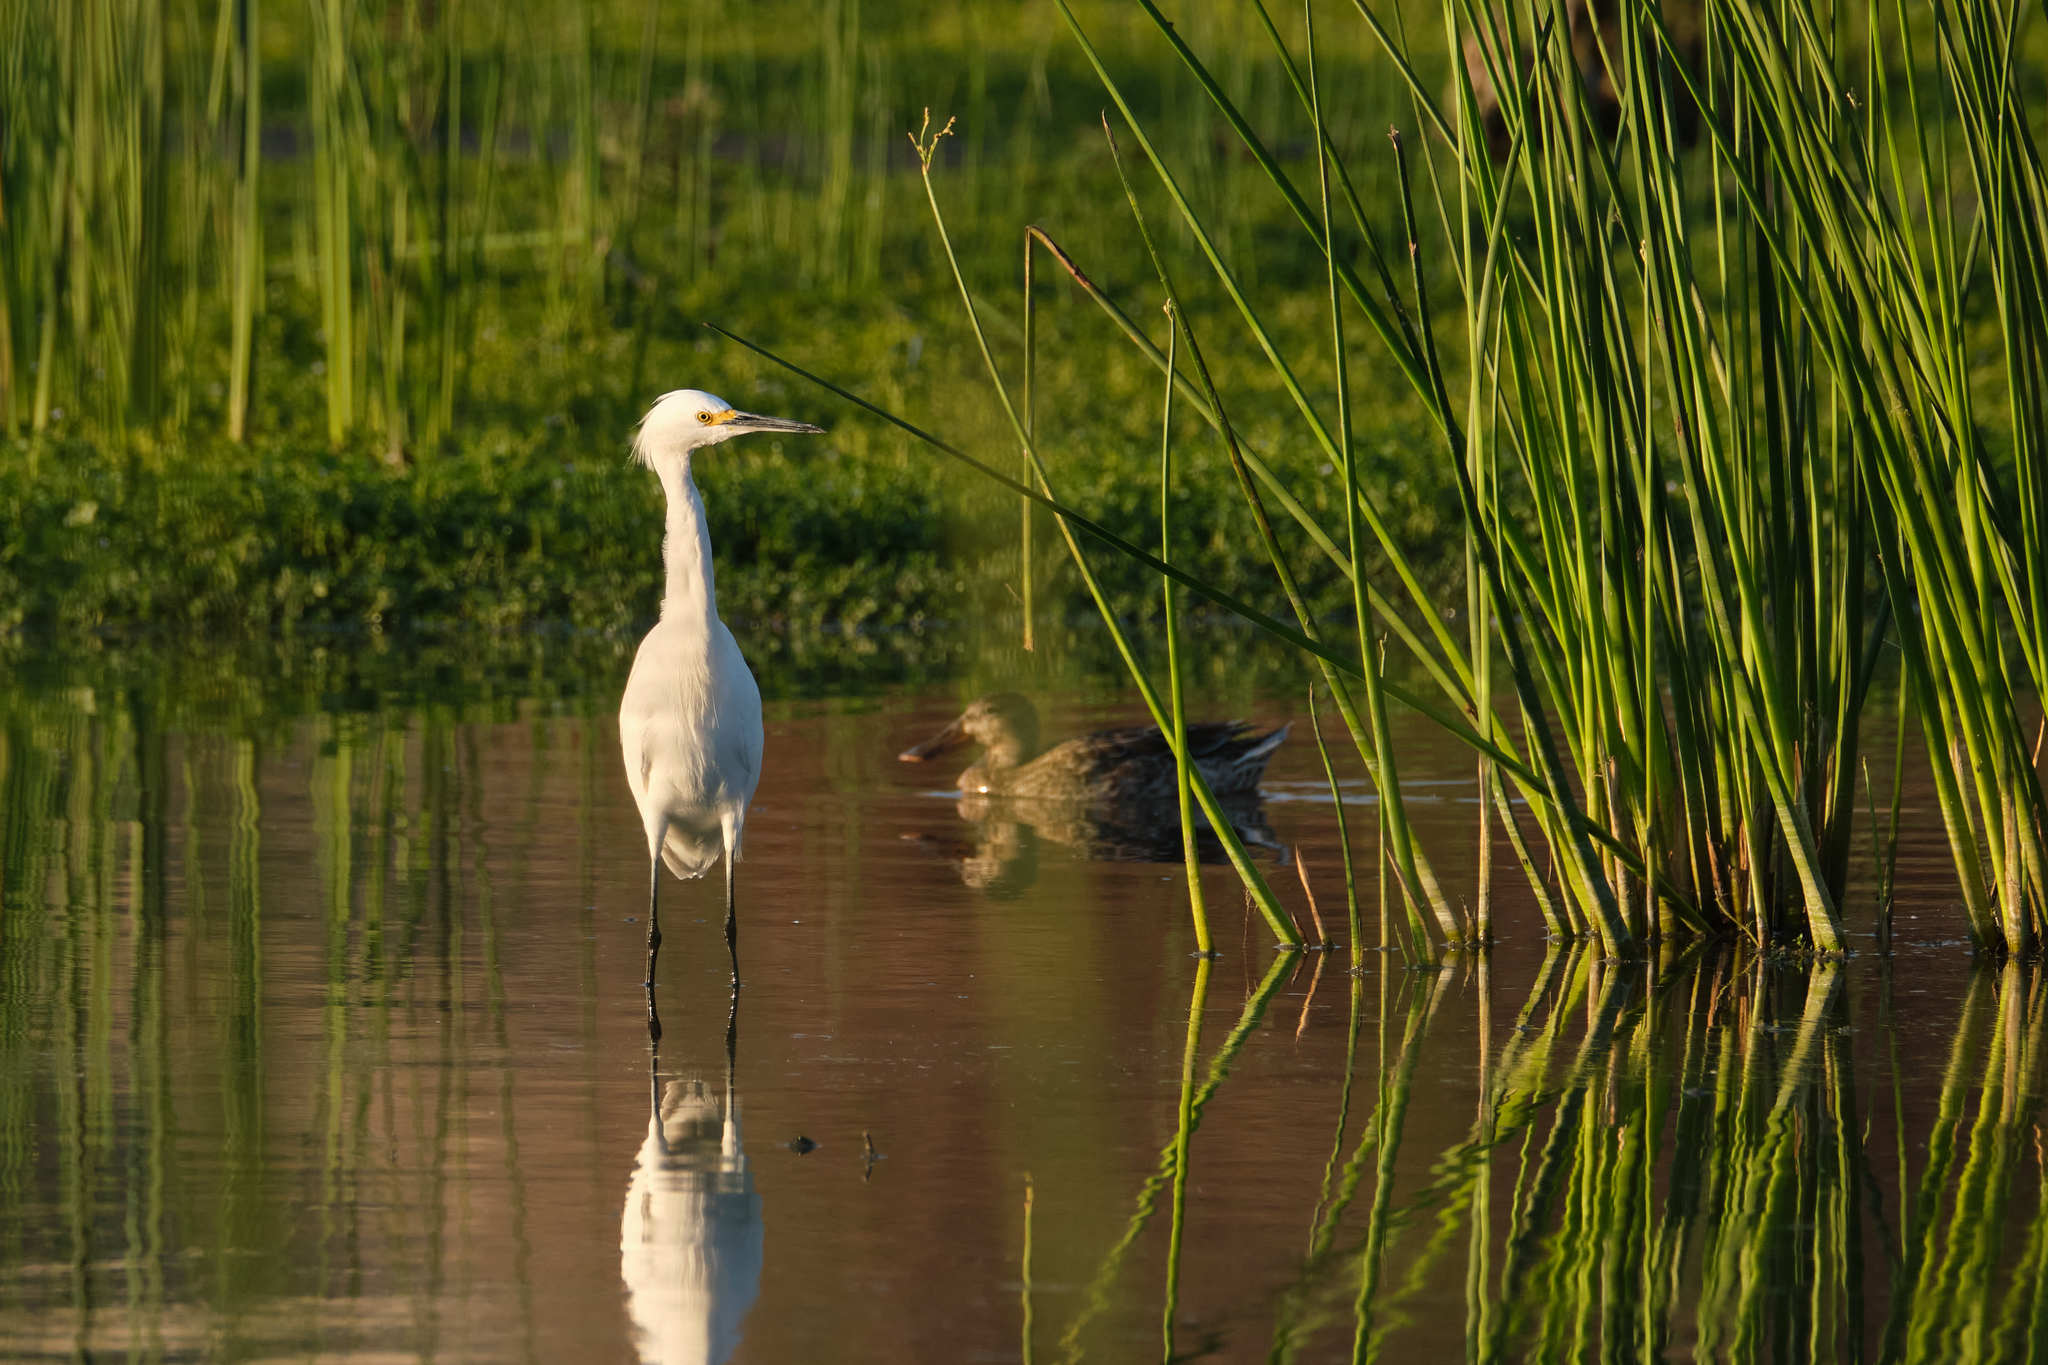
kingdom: Animalia
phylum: Chordata
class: Aves
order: Pelecaniformes
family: Ardeidae
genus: Egretta
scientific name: Egretta thula
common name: Snowy egret
